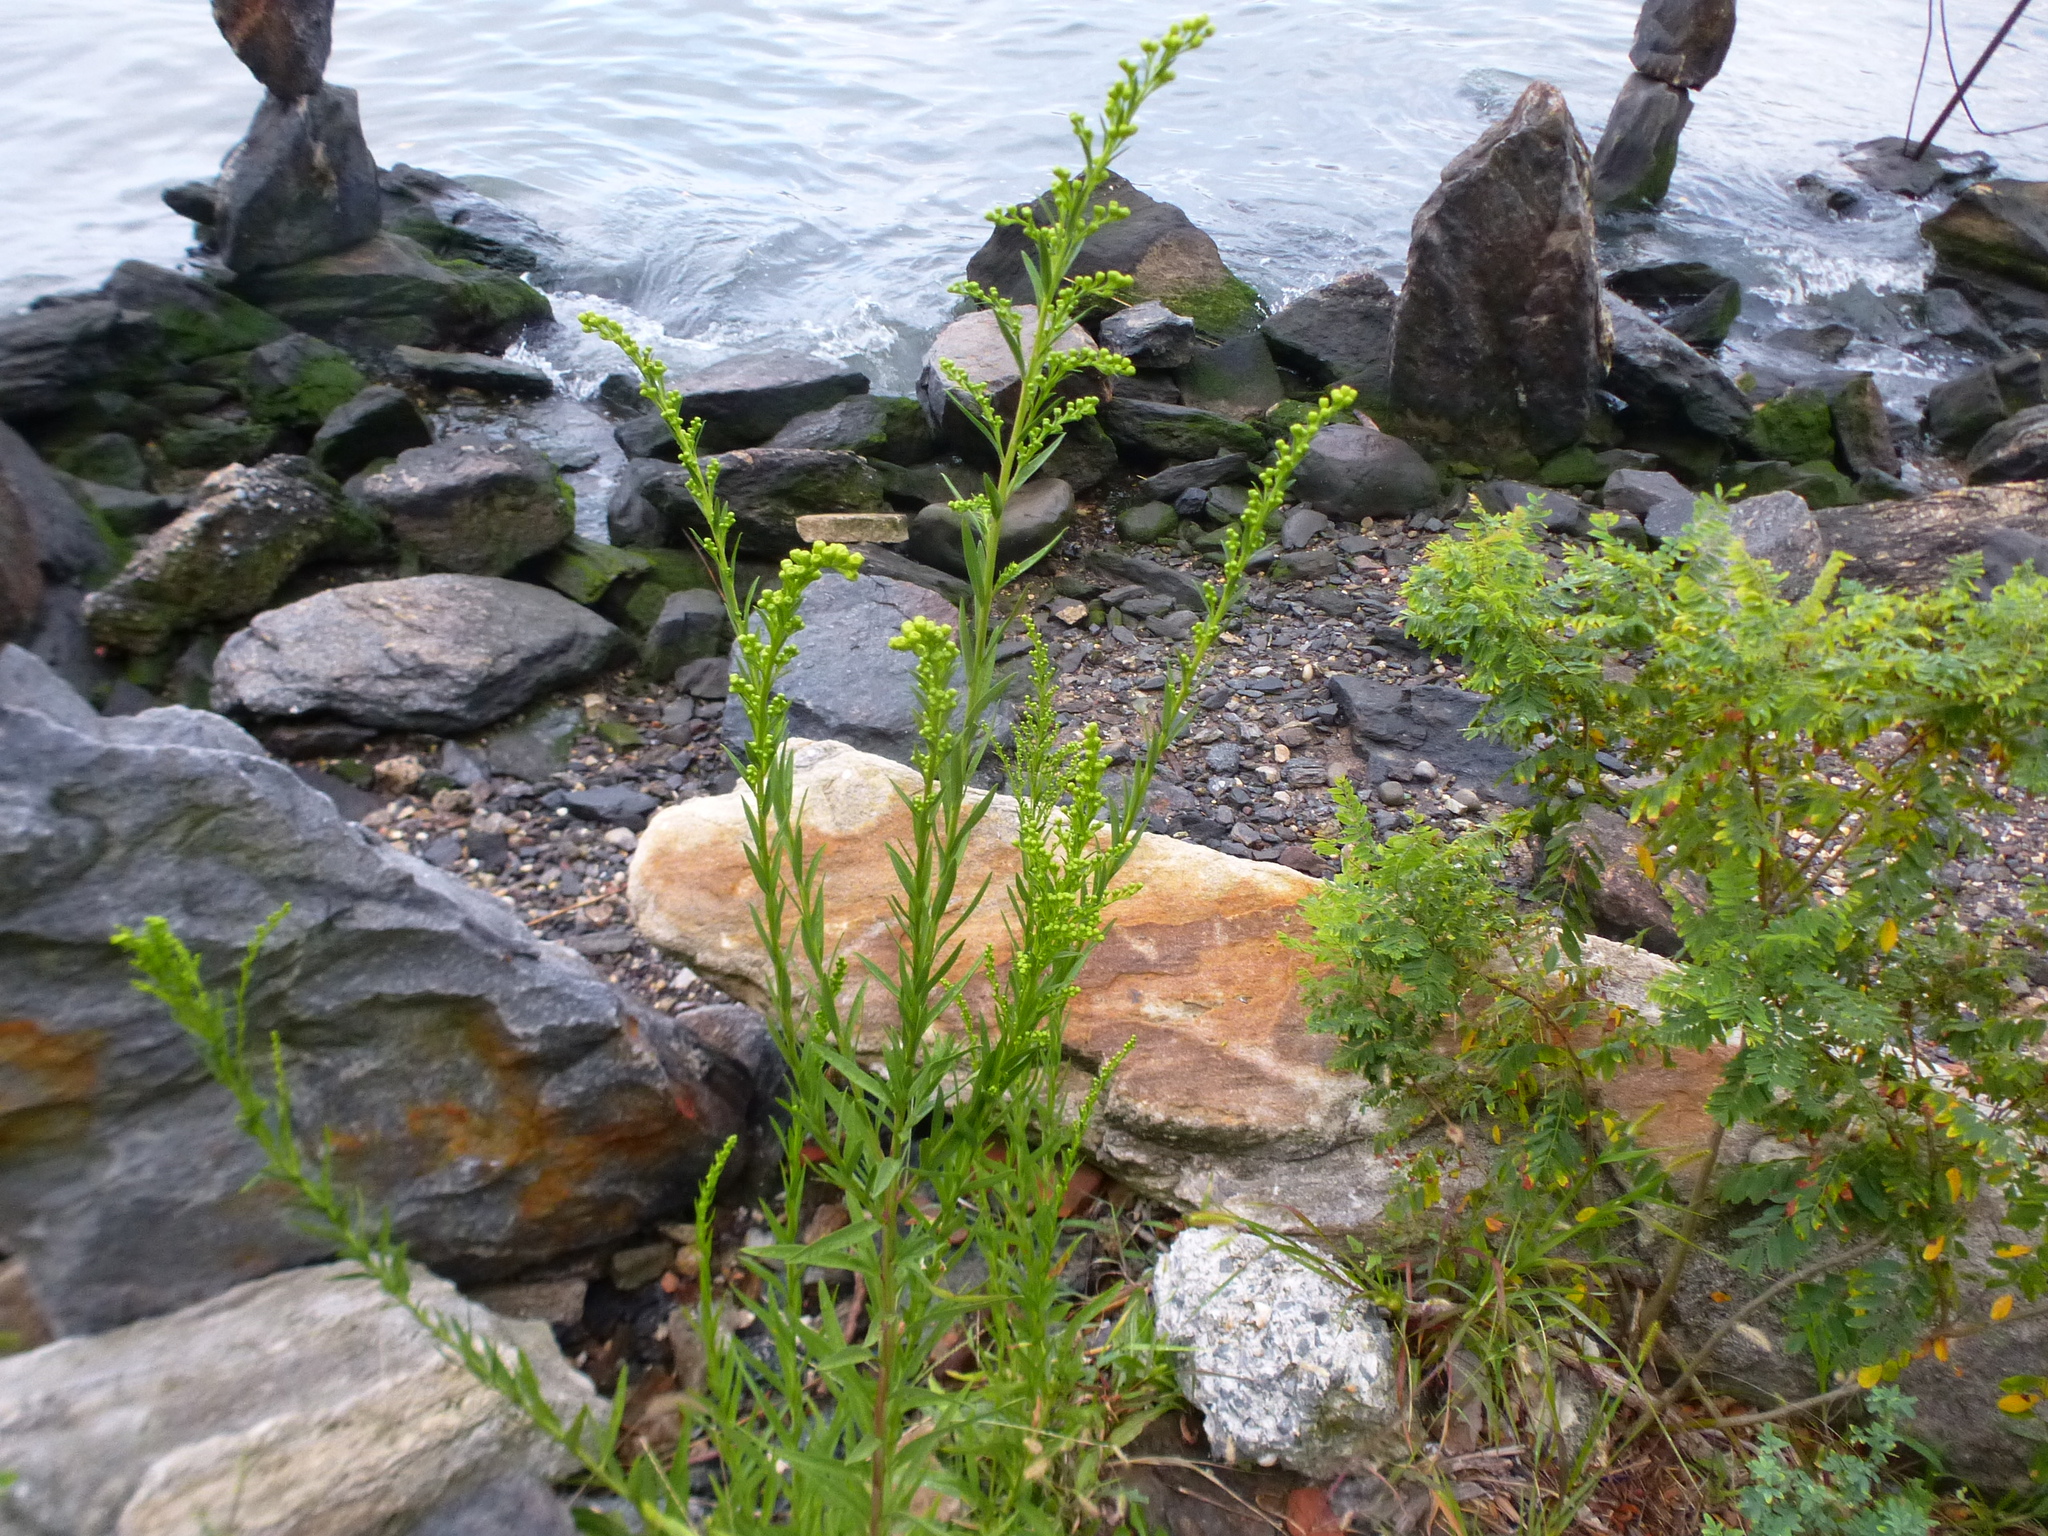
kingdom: Plantae
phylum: Tracheophyta
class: Magnoliopsida
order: Asterales
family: Asteraceae
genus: Solidago
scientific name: Solidago sempervirens
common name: Salt-marsh goldenrod
